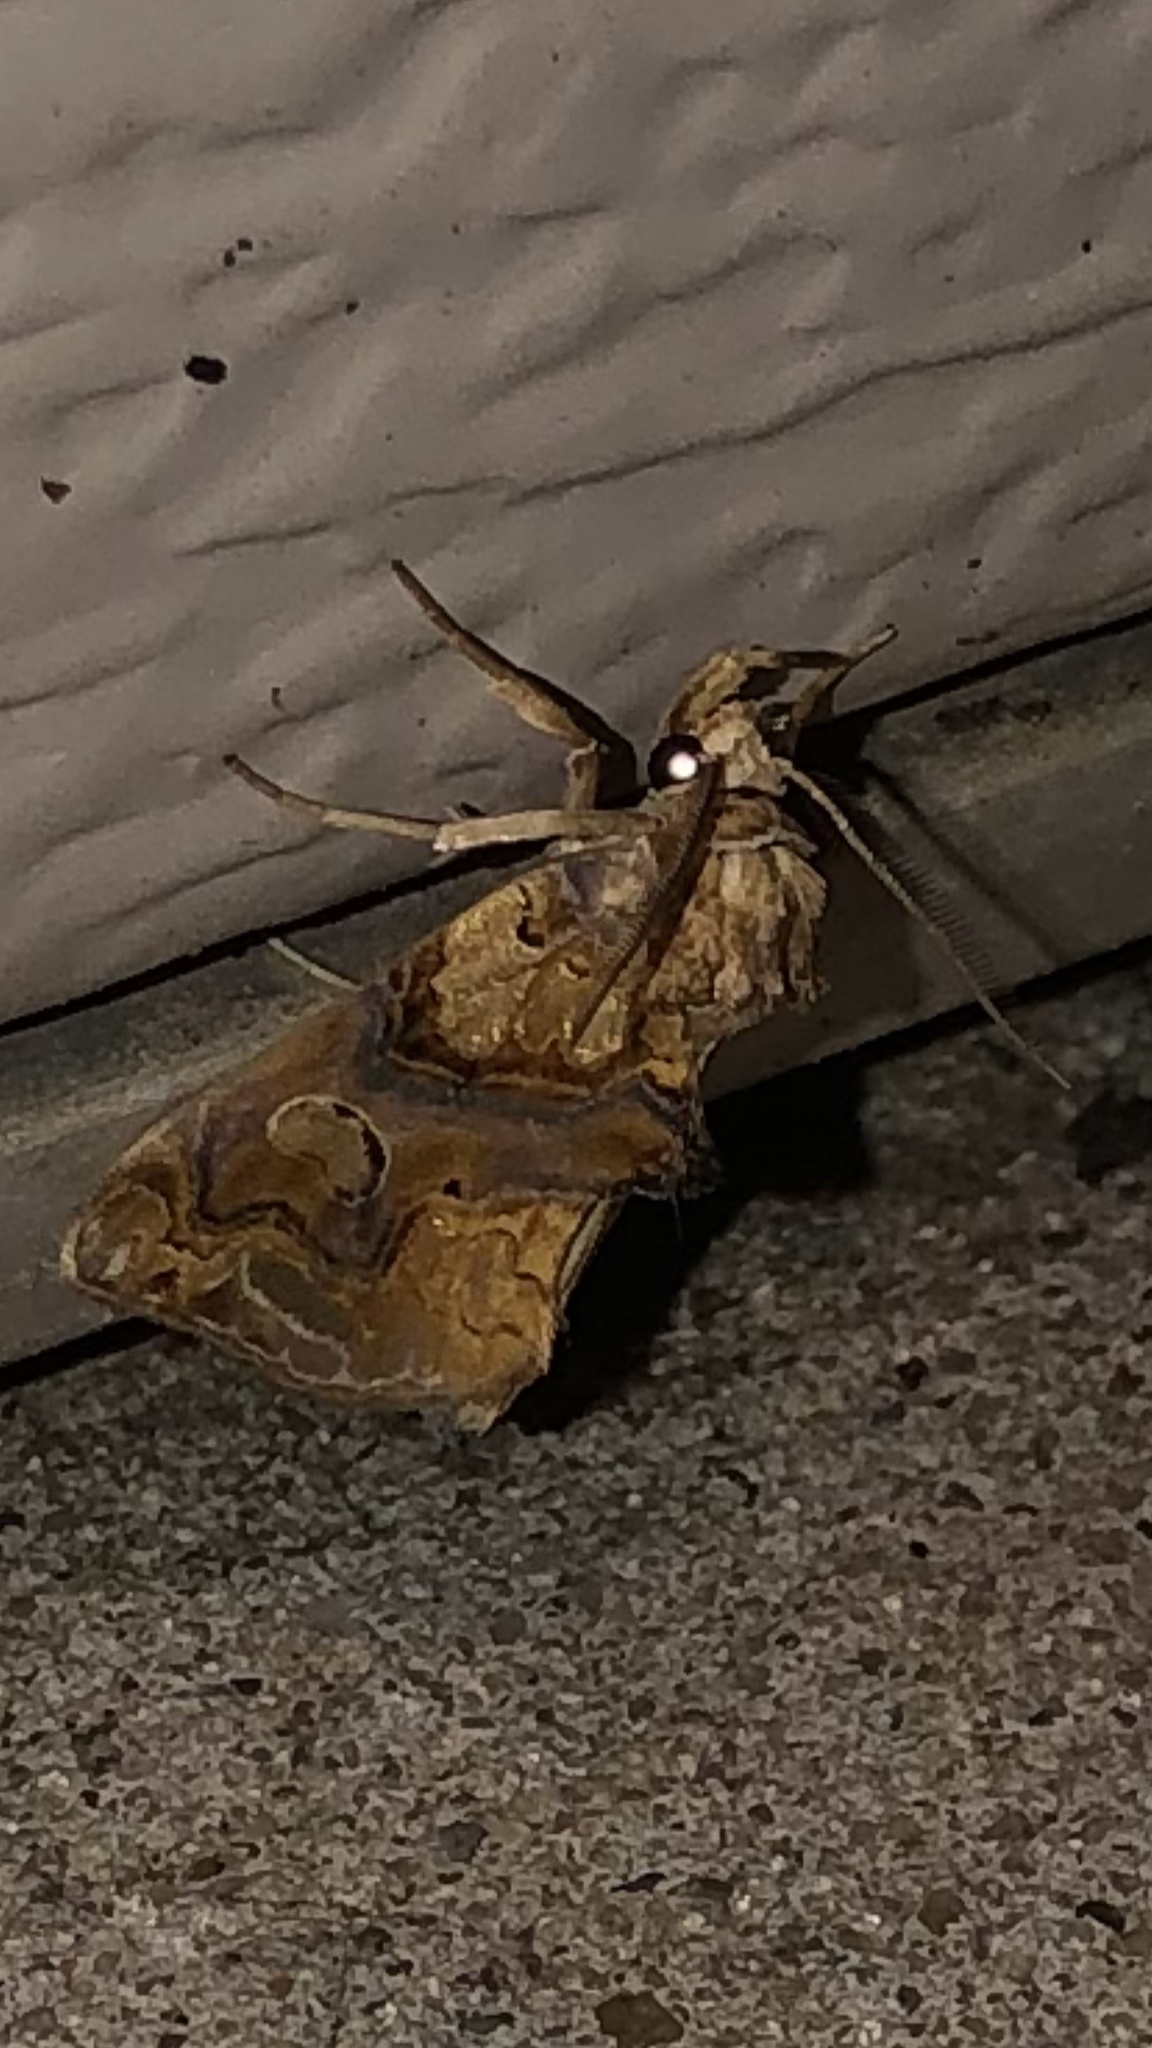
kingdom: Animalia
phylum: Arthropoda
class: Insecta
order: Lepidoptera
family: Erebidae
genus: Plusiodonta
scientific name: Plusiodonta compressipalpis
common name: Moonseed moth
